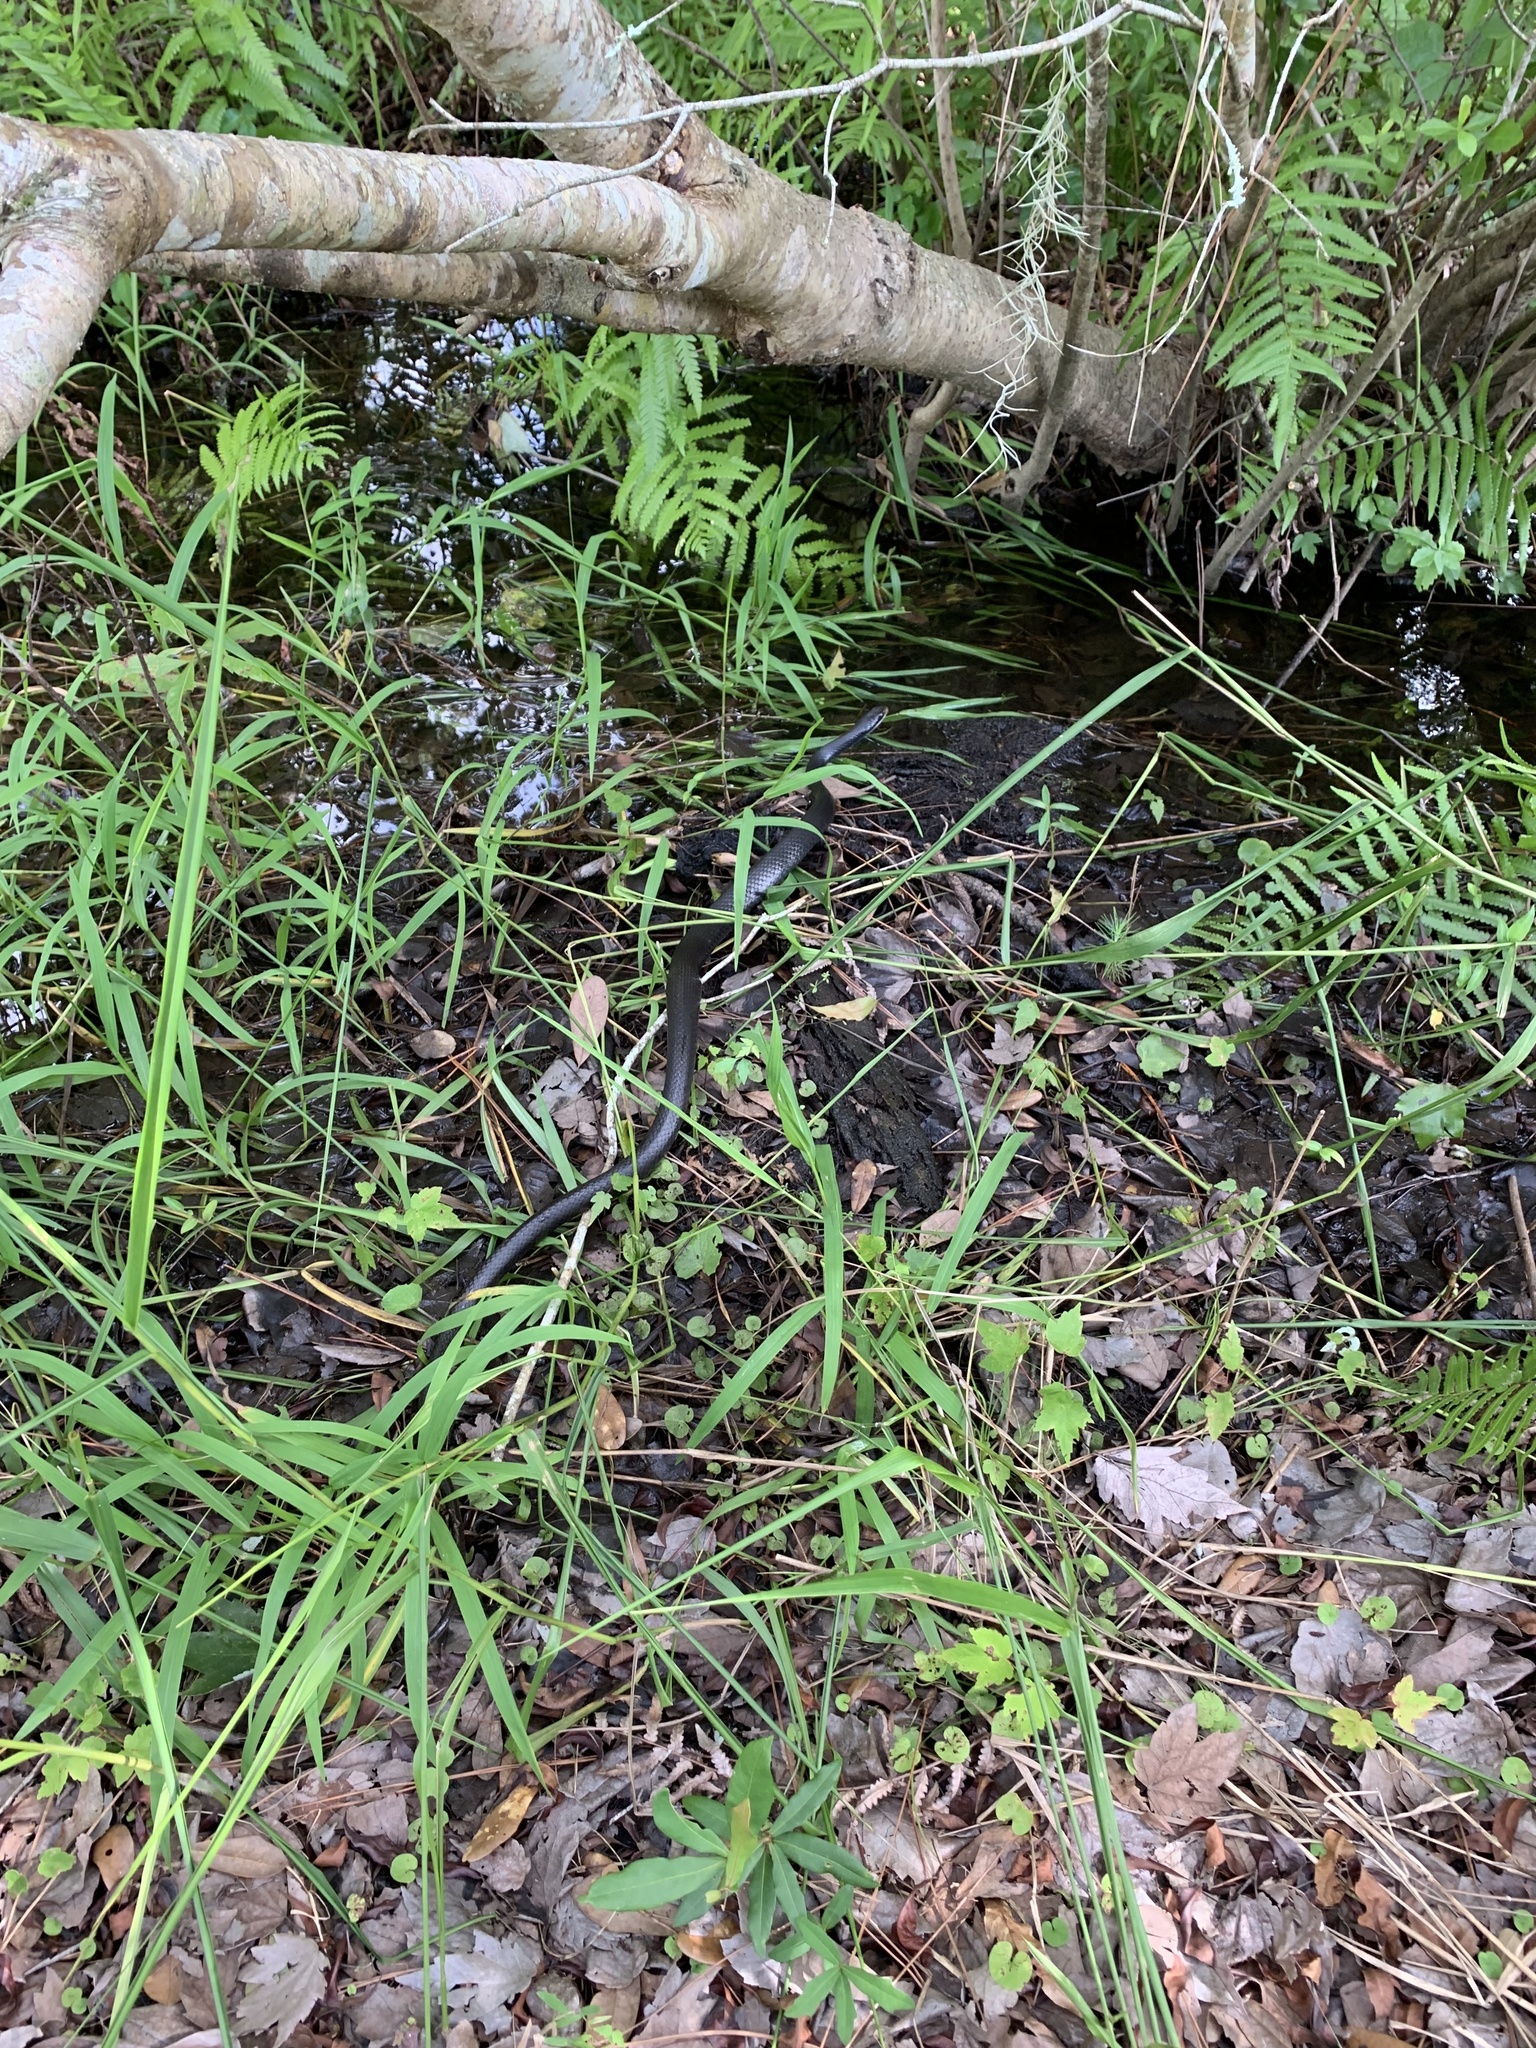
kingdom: Animalia
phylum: Chordata
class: Squamata
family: Colubridae
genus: Coluber
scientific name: Coluber constrictor
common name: Eastern racer
